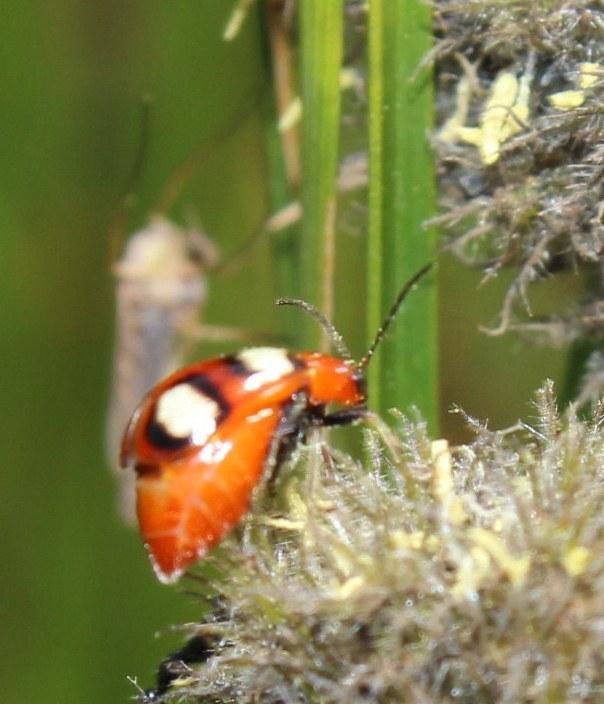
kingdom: Animalia
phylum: Arthropoda
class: Insecta
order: Coleoptera
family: Chrysomelidae
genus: Monolepta
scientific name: Monolepta
